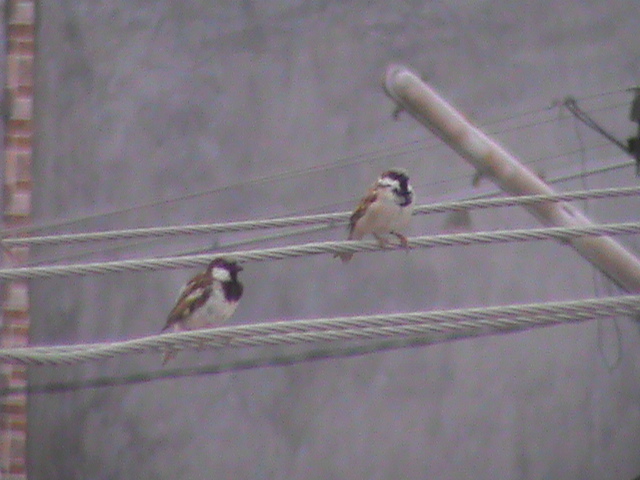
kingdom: Animalia
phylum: Chordata
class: Aves
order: Passeriformes
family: Passeridae
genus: Passer
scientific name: Passer domesticus
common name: House sparrow
